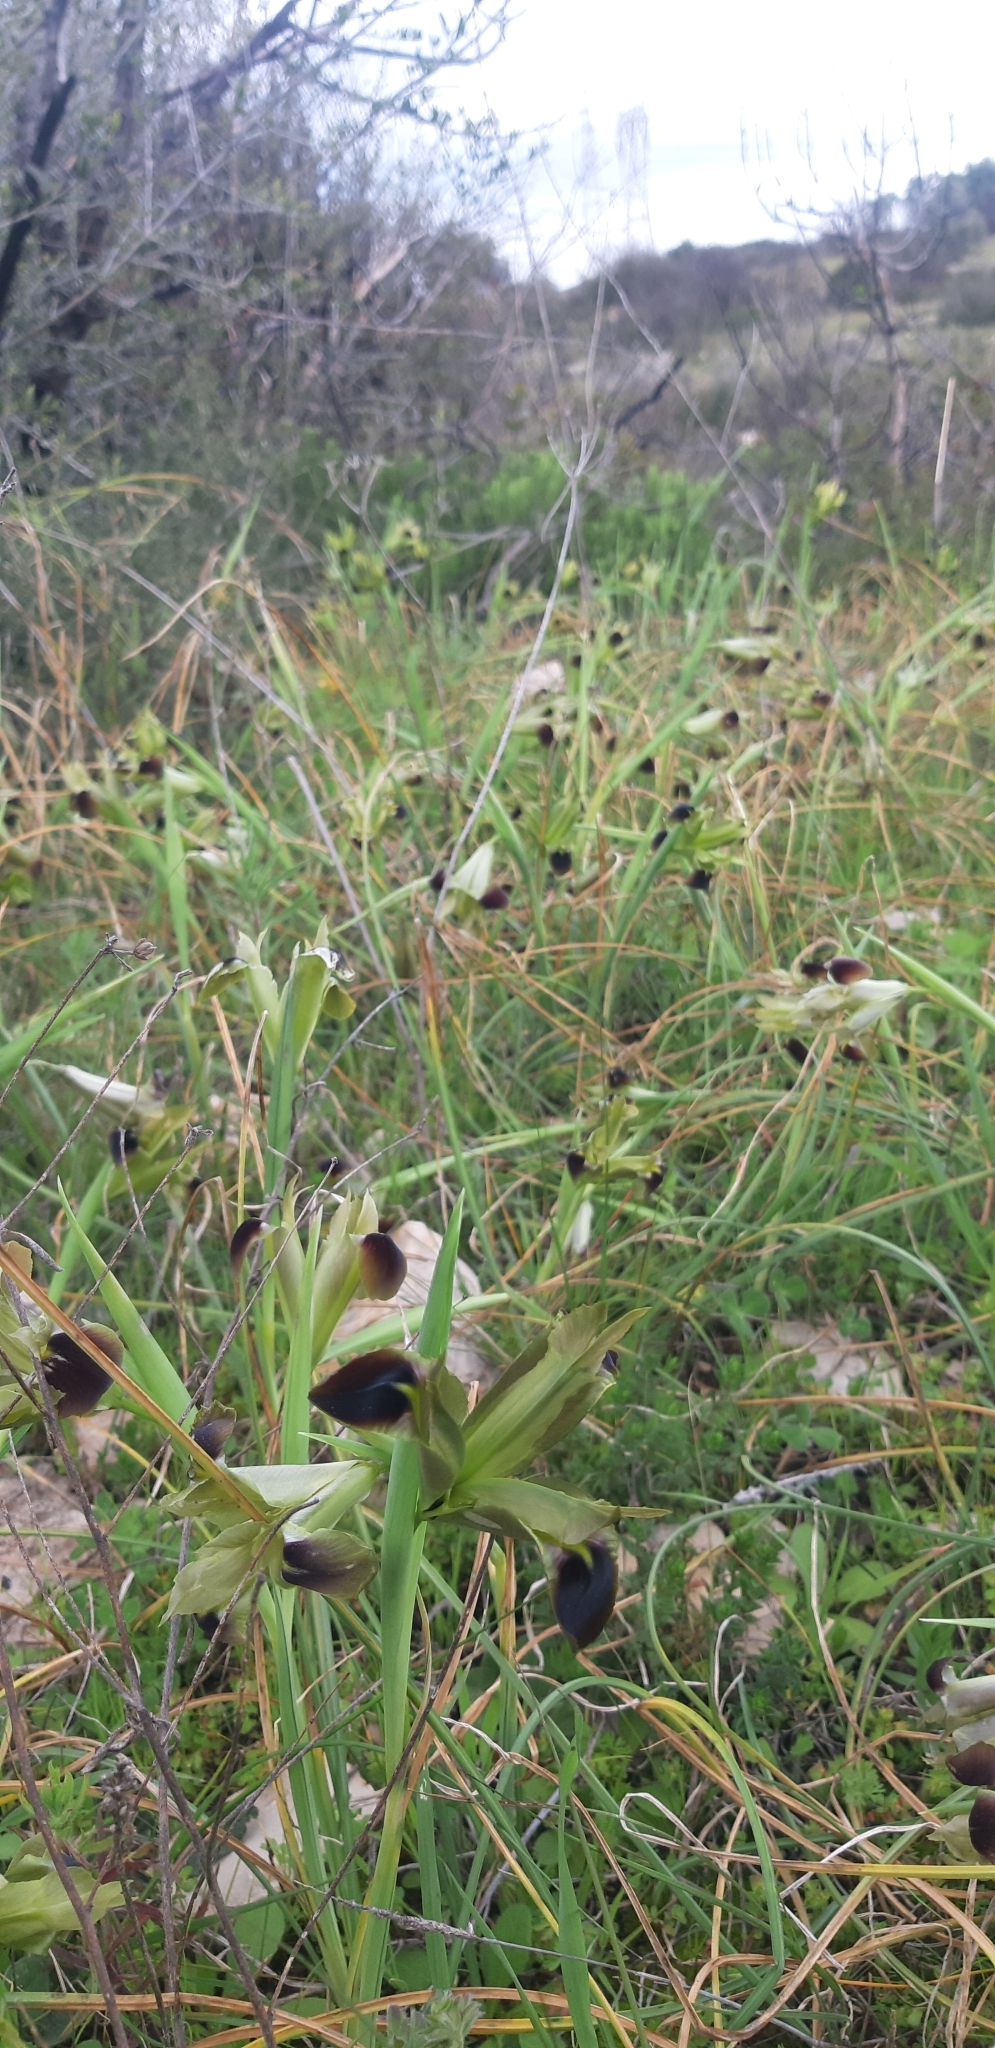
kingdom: Plantae
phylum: Tracheophyta
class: Liliopsida
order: Asparagales
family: Iridaceae
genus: Iris
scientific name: Iris tuberosa
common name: Snake's-head iris
